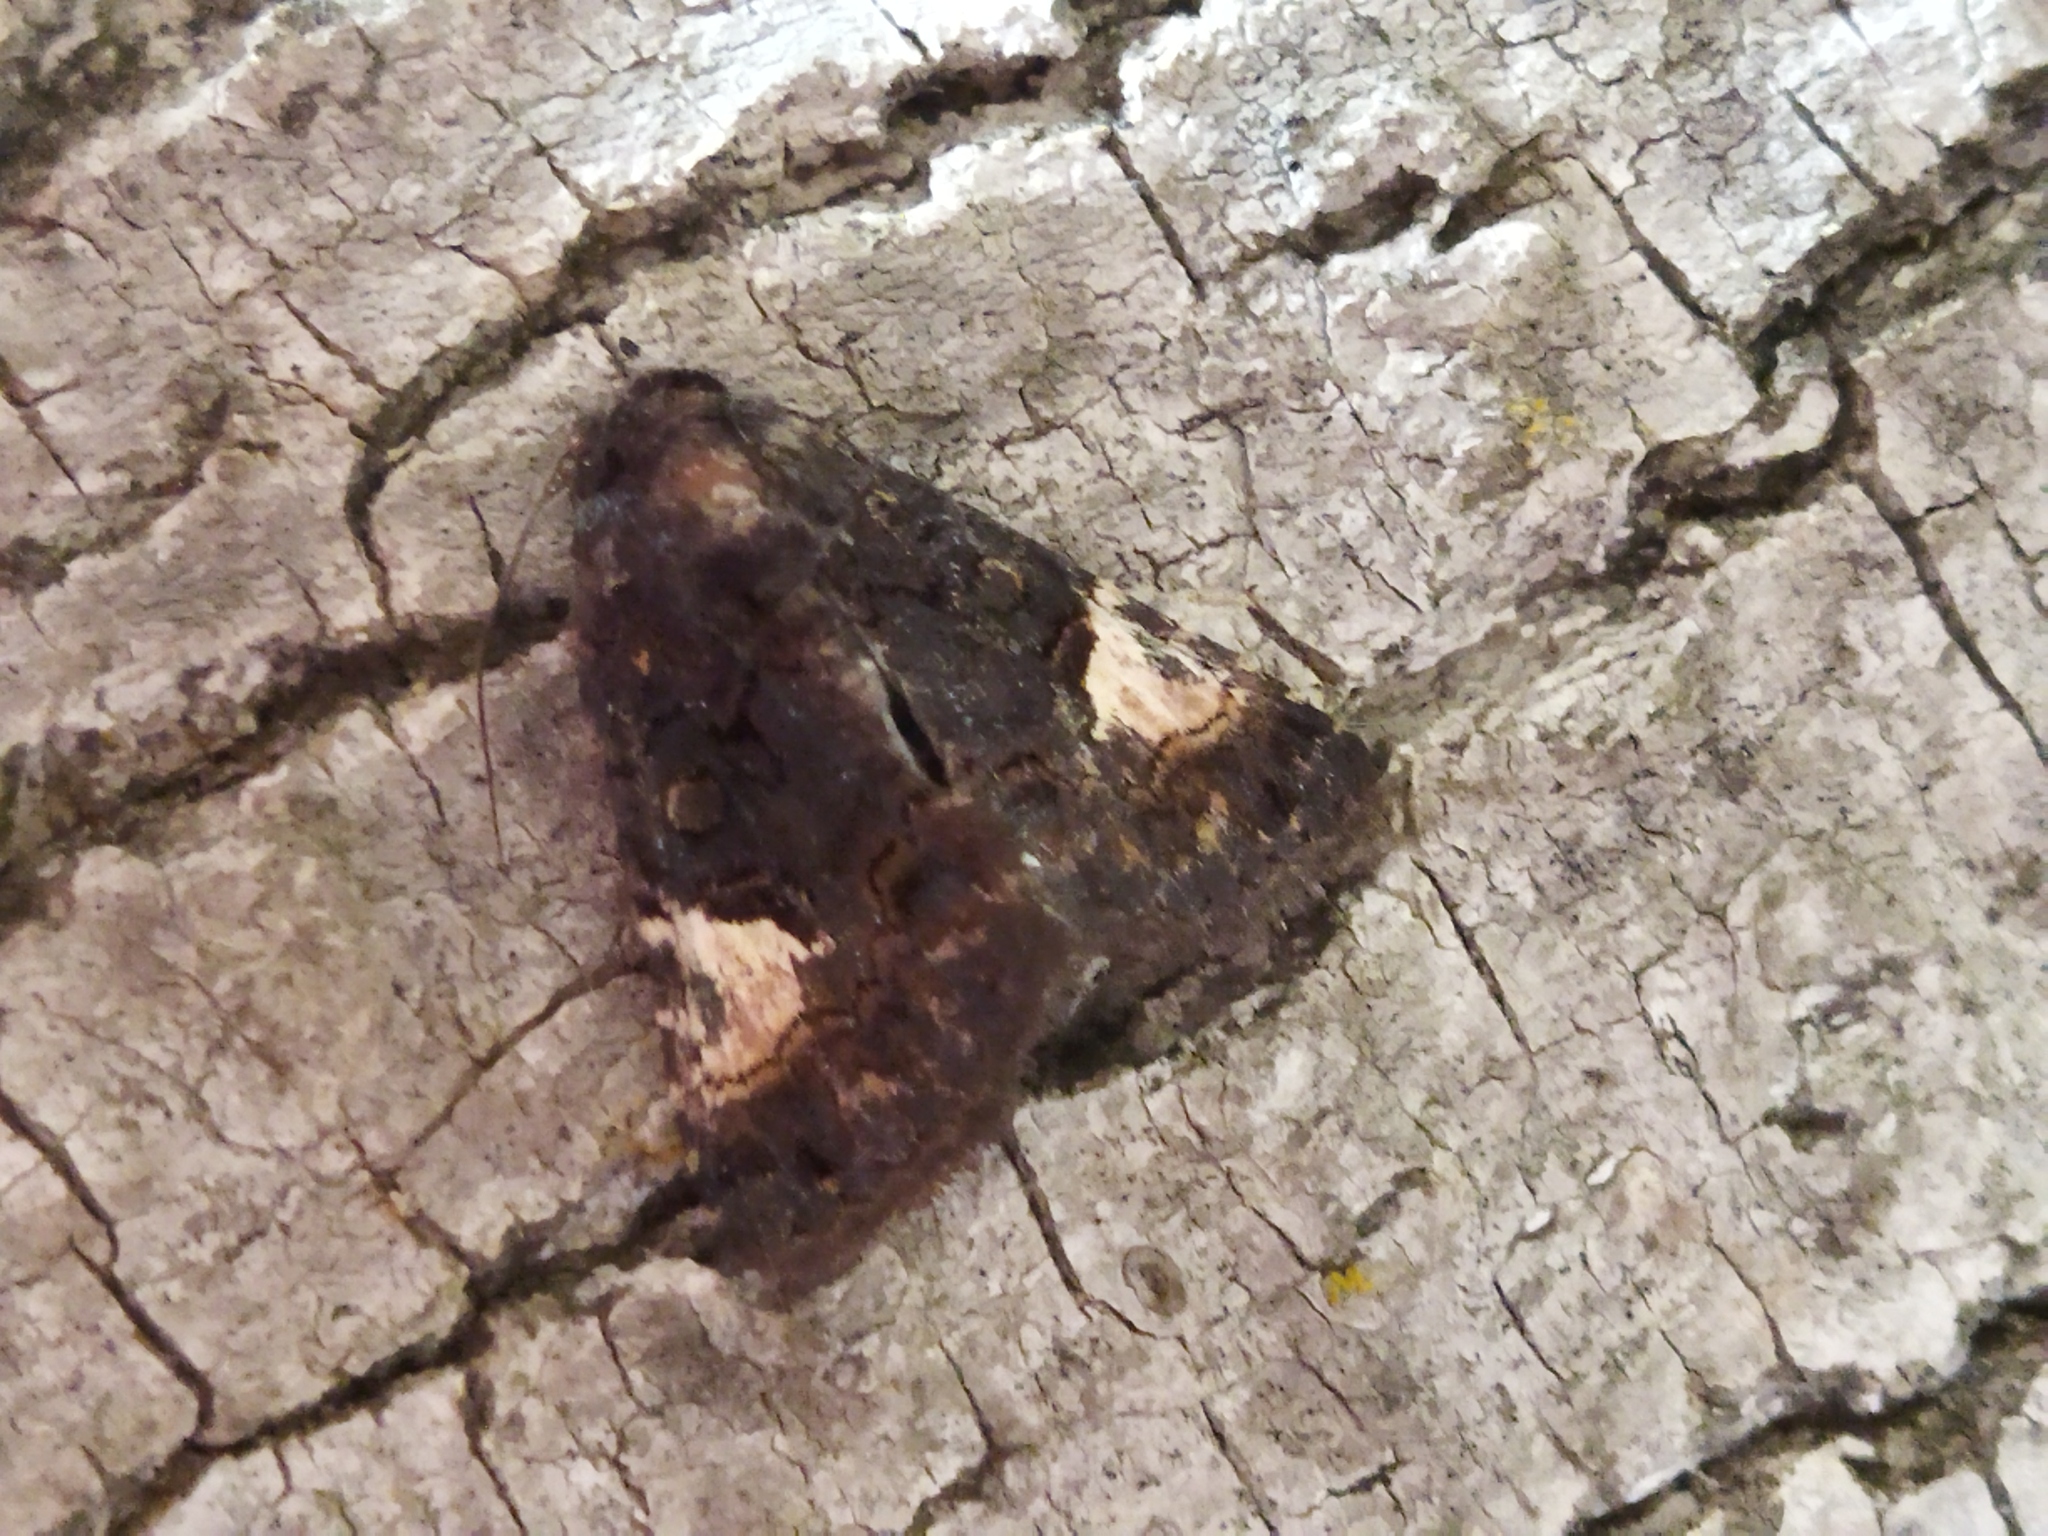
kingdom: Animalia
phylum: Arthropoda
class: Insecta
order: Lepidoptera
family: Noctuidae
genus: Aedia
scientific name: Aedia funesta
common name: The druid
